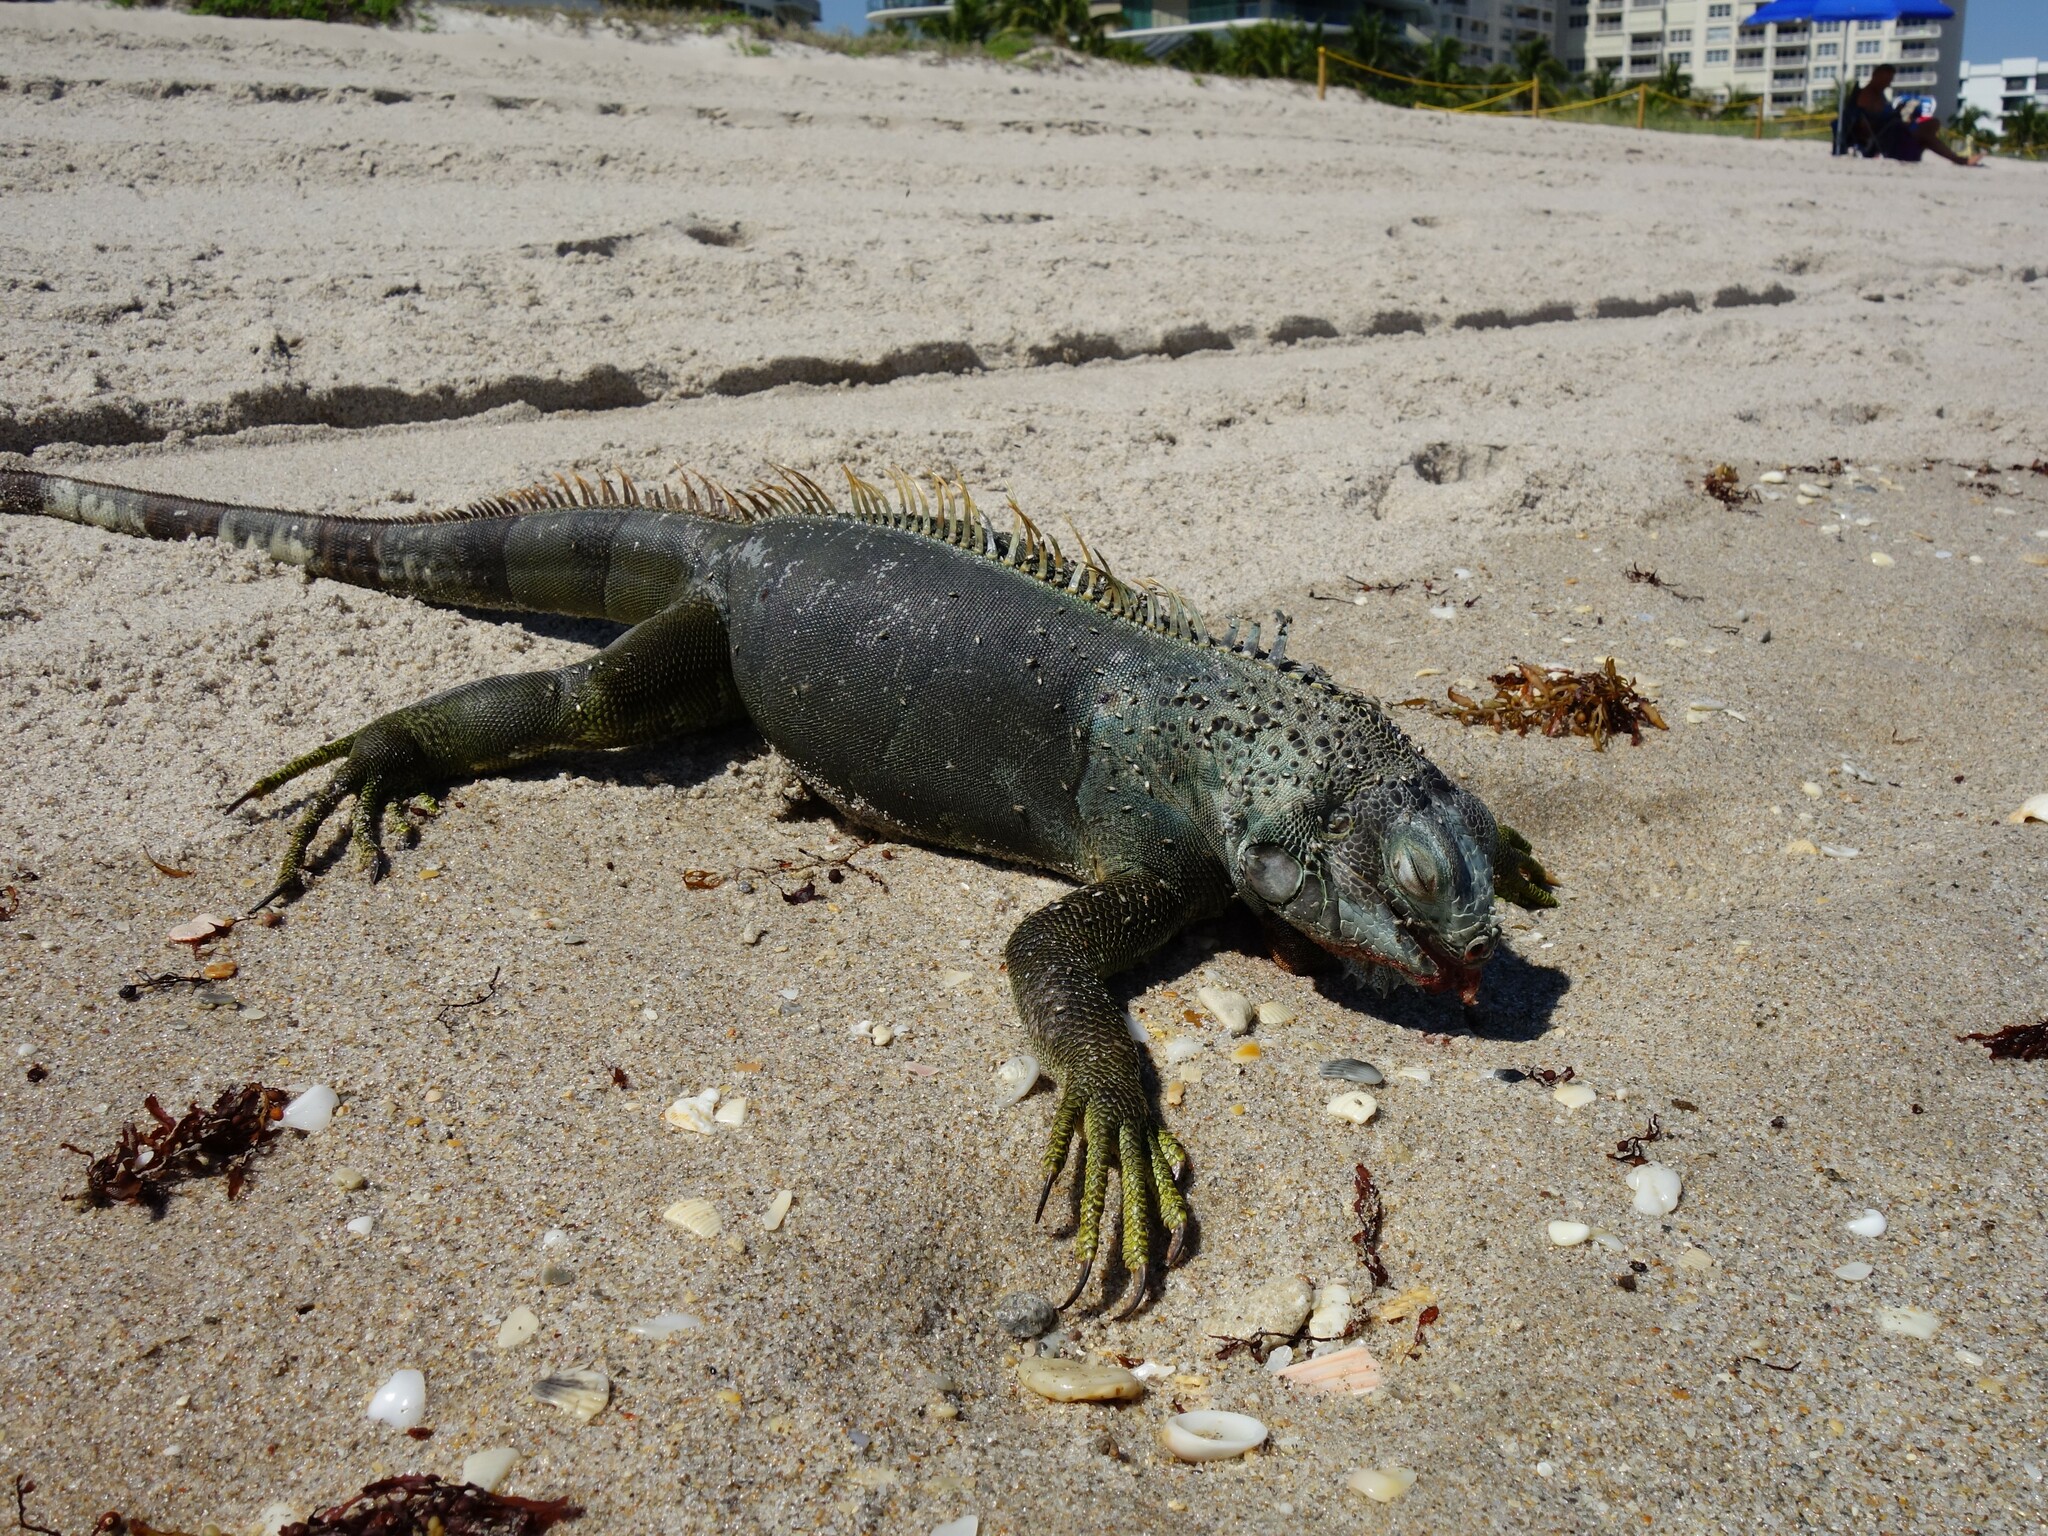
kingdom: Animalia
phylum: Chordata
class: Squamata
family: Iguanidae
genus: Iguana
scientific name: Iguana iguana
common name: Green iguana
